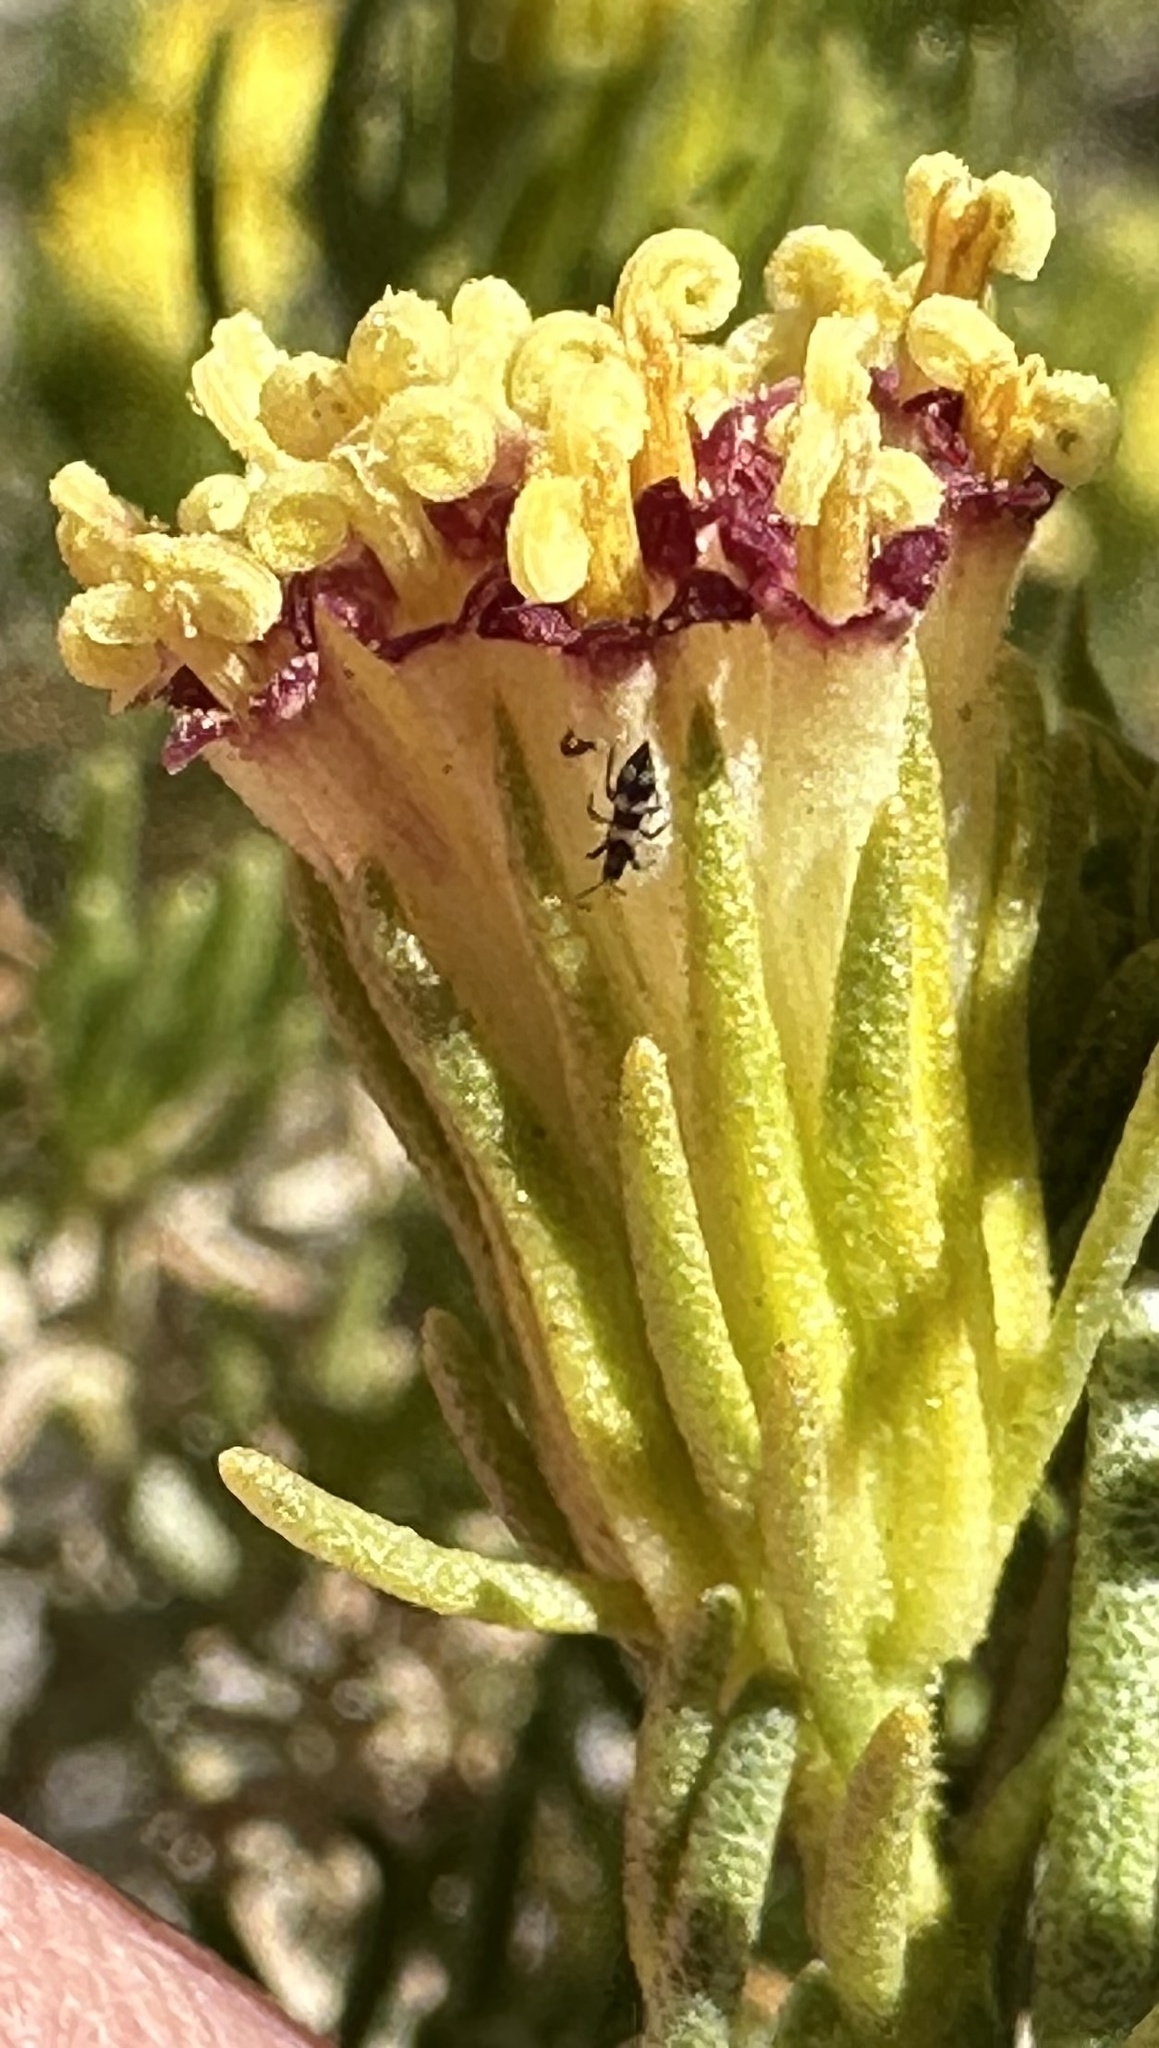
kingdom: Plantae
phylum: Tracheophyta
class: Magnoliopsida
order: Asterales
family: Asteraceae
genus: Peucephyllum
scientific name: Peucephyllum schottii
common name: Pygmy-cedar
